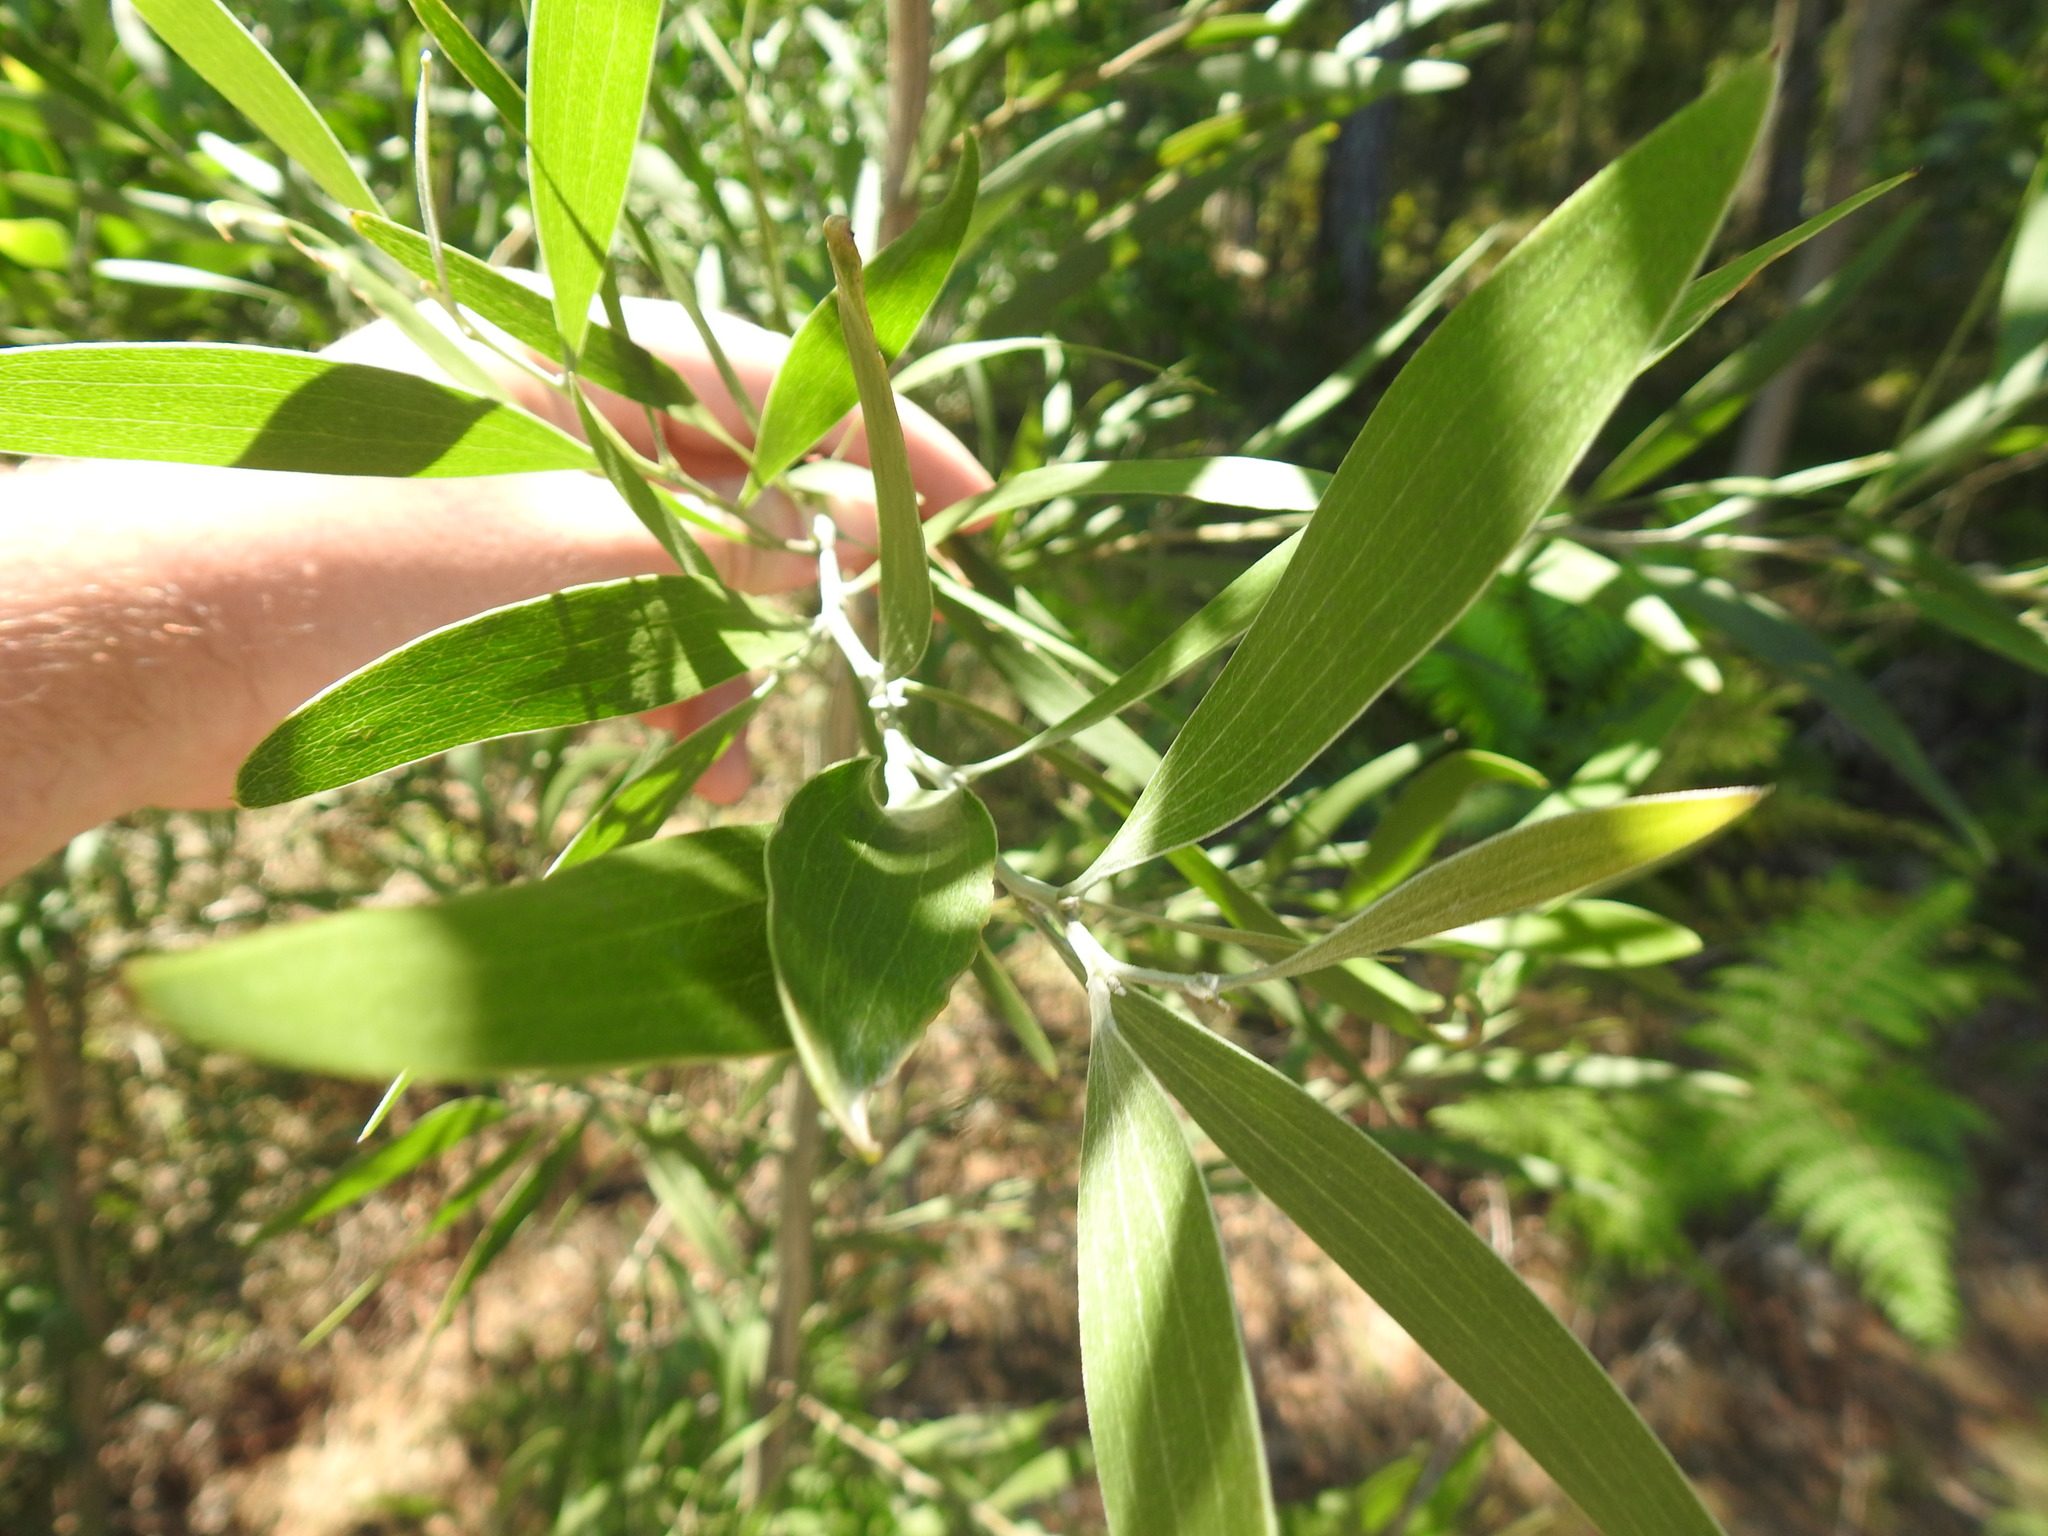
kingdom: Plantae
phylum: Tracheophyta
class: Magnoliopsida
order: Fabales
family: Fabaceae
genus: Acacia
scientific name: Acacia melanoxylon
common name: Blackwood
